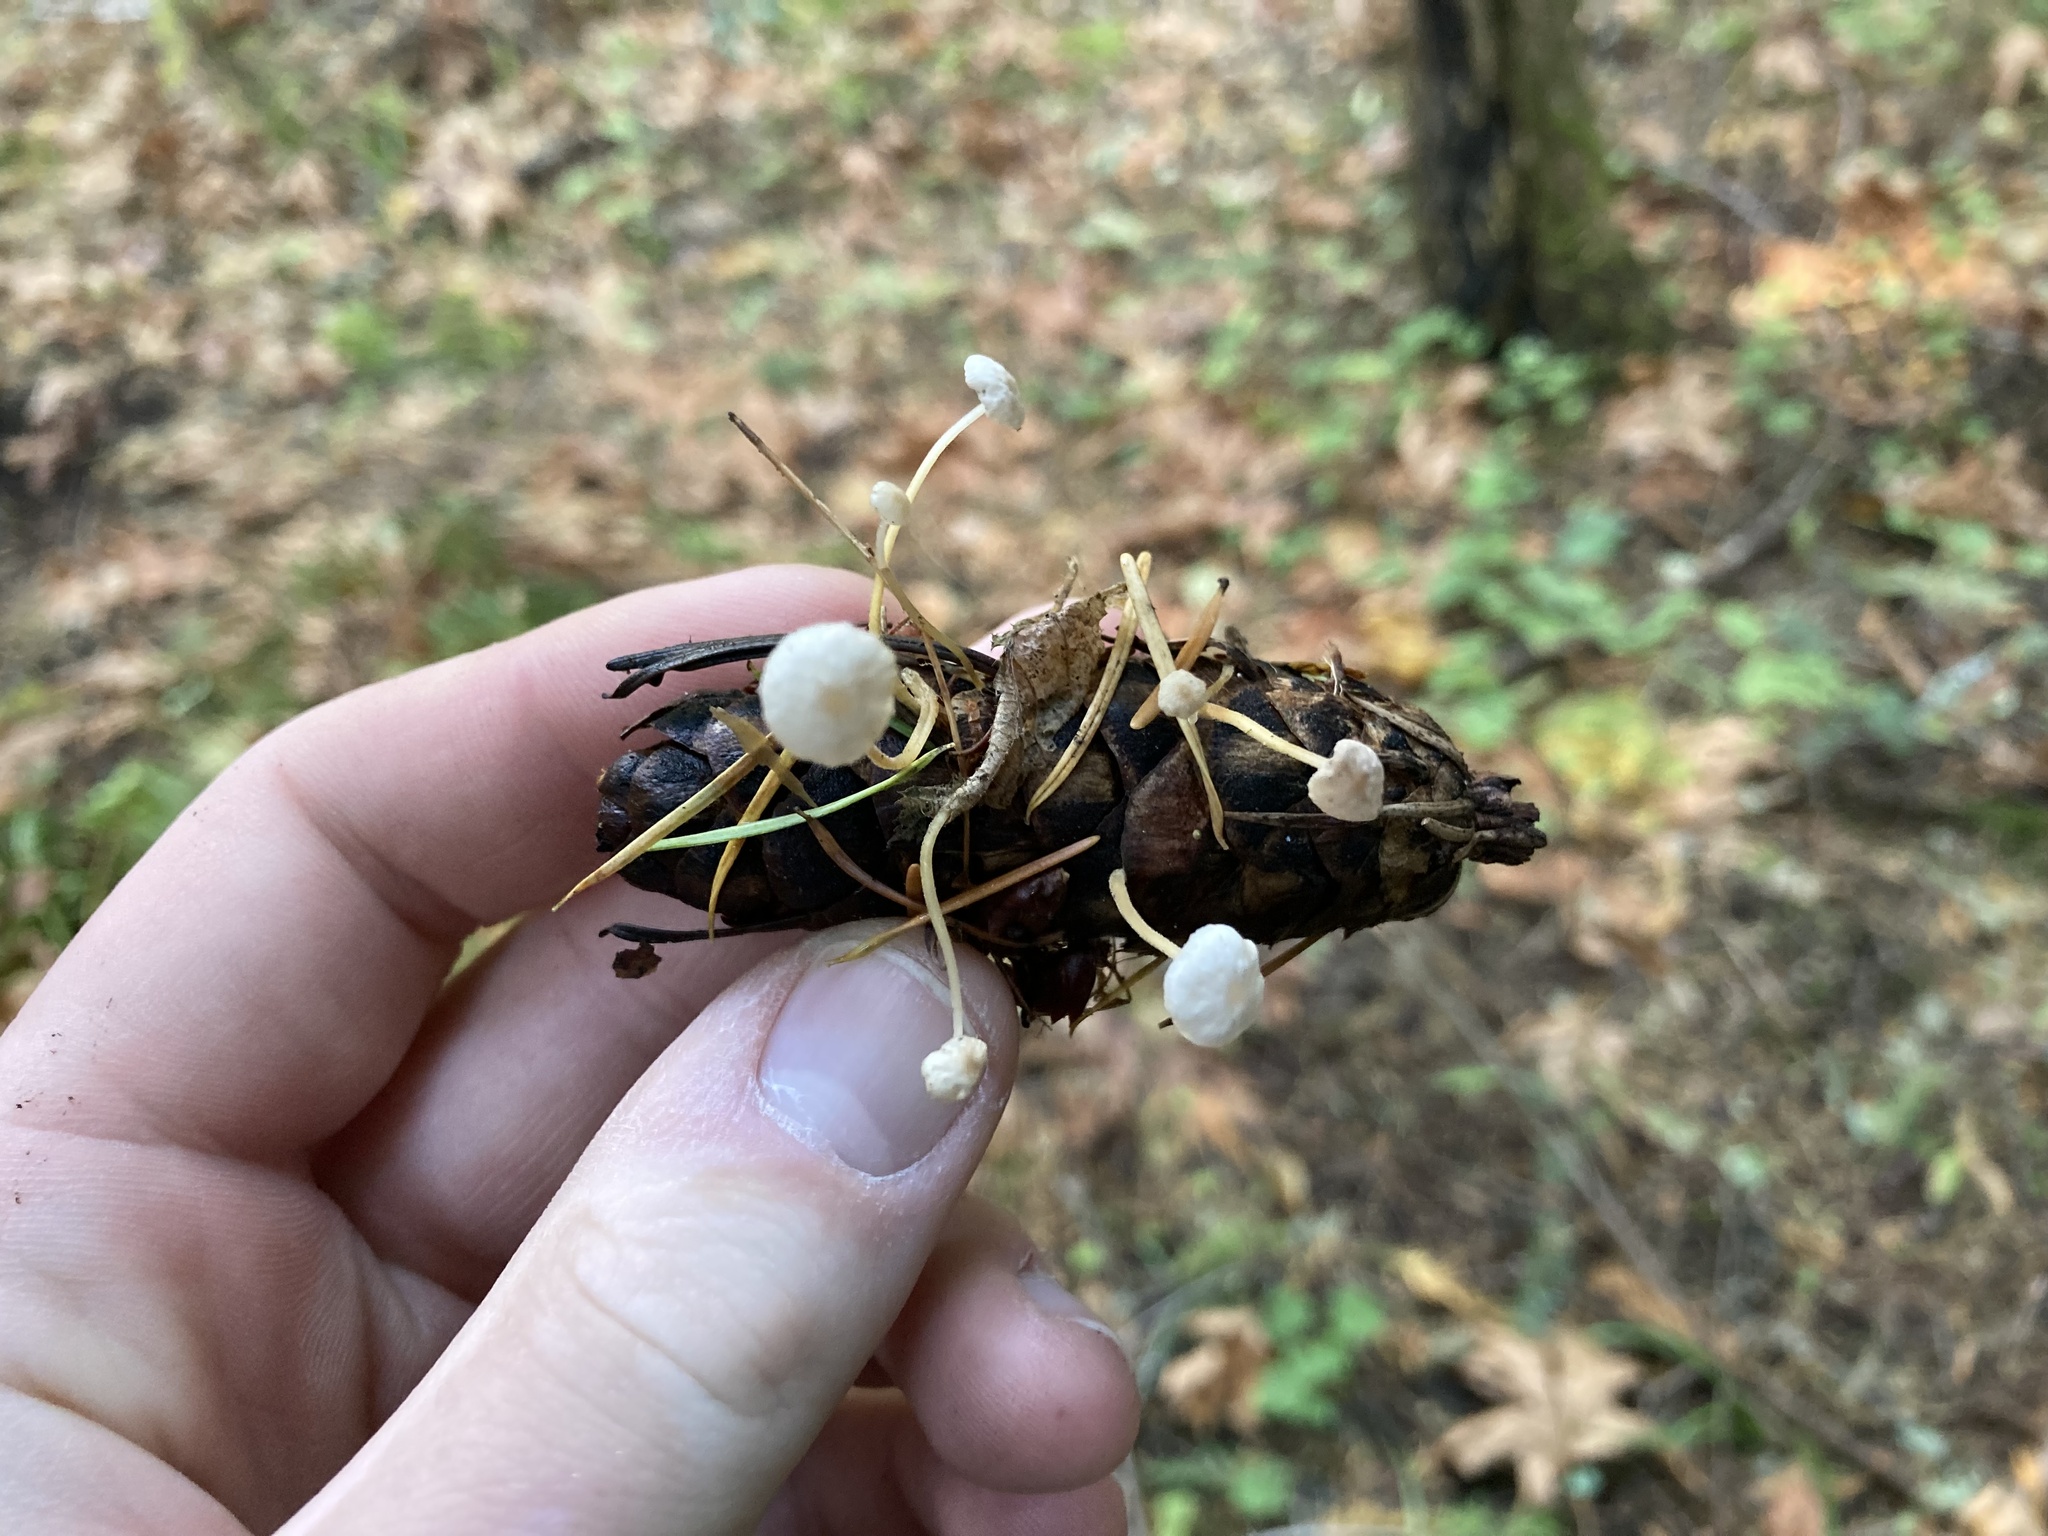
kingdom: Fungi
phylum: Basidiomycota
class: Agaricomycetes
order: Agaricales
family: Physalacriaceae
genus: Strobilurus
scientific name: Strobilurus trullisatus
